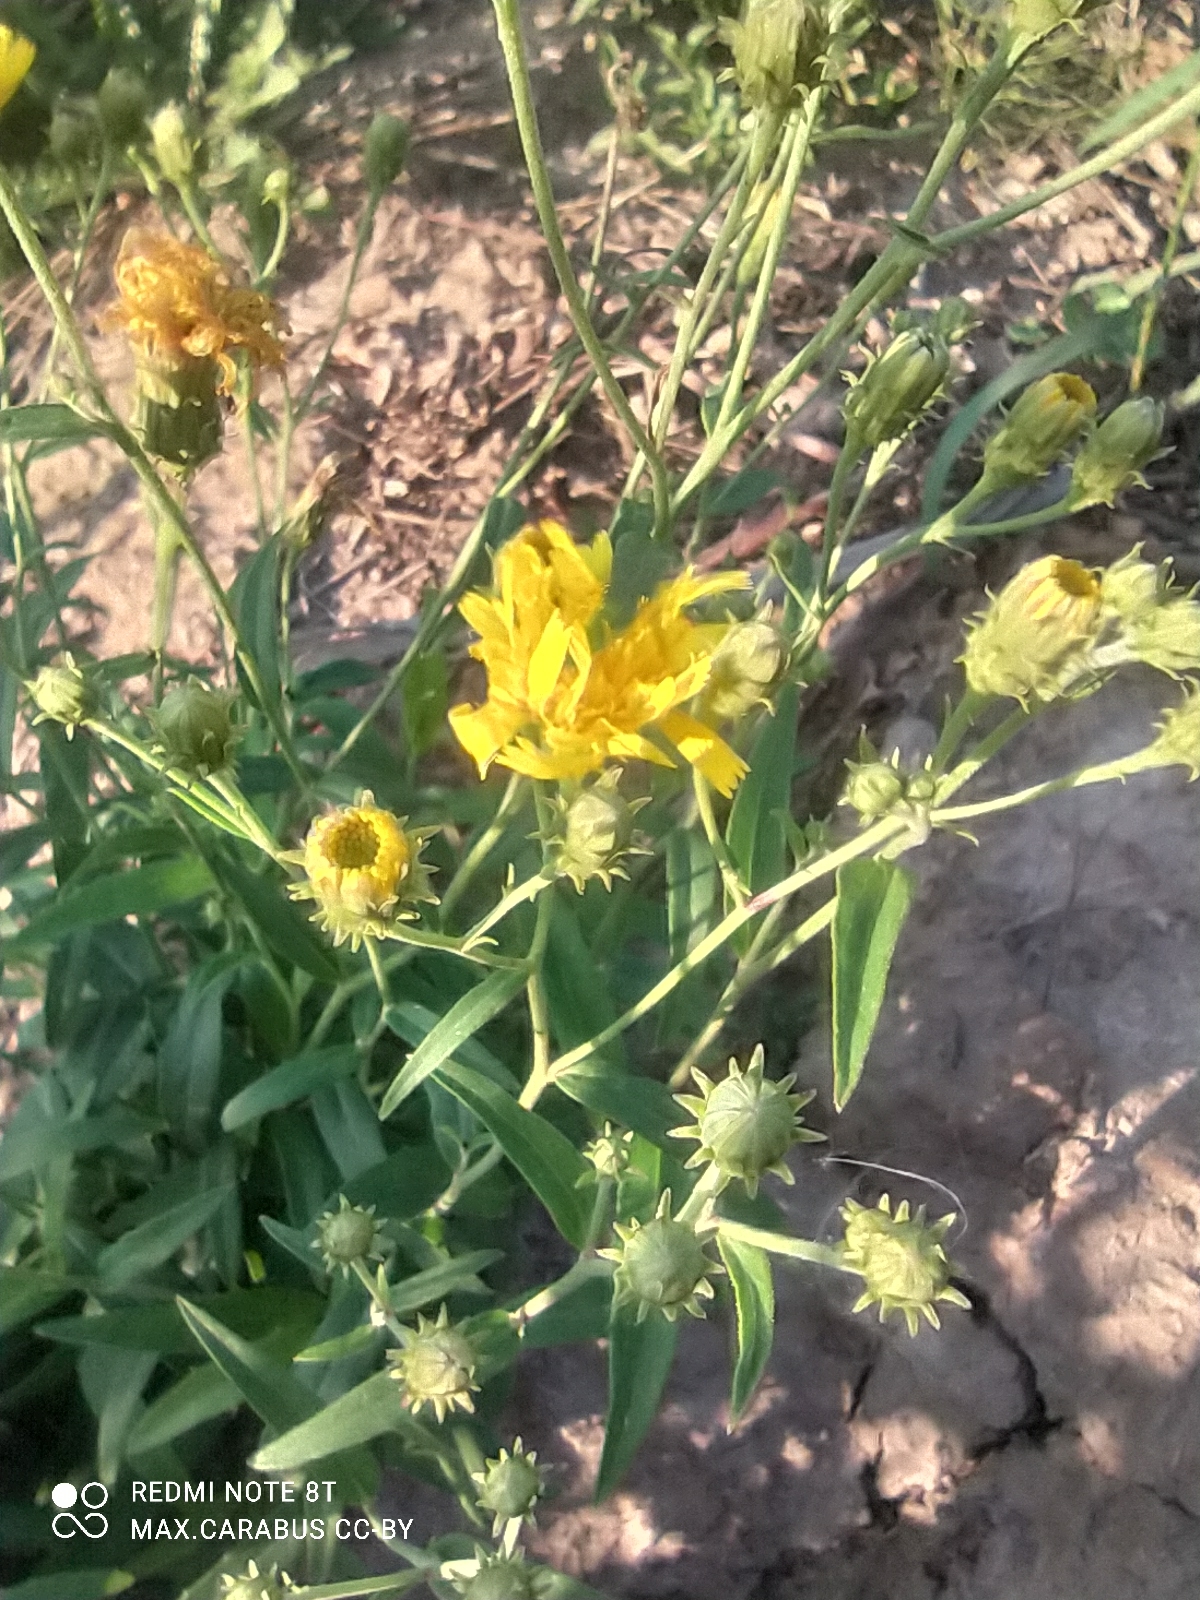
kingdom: Plantae
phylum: Tracheophyta
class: Magnoliopsida
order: Asterales
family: Asteraceae
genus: Hieracium
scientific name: Hieracium umbellatum
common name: Northern hawkweed
